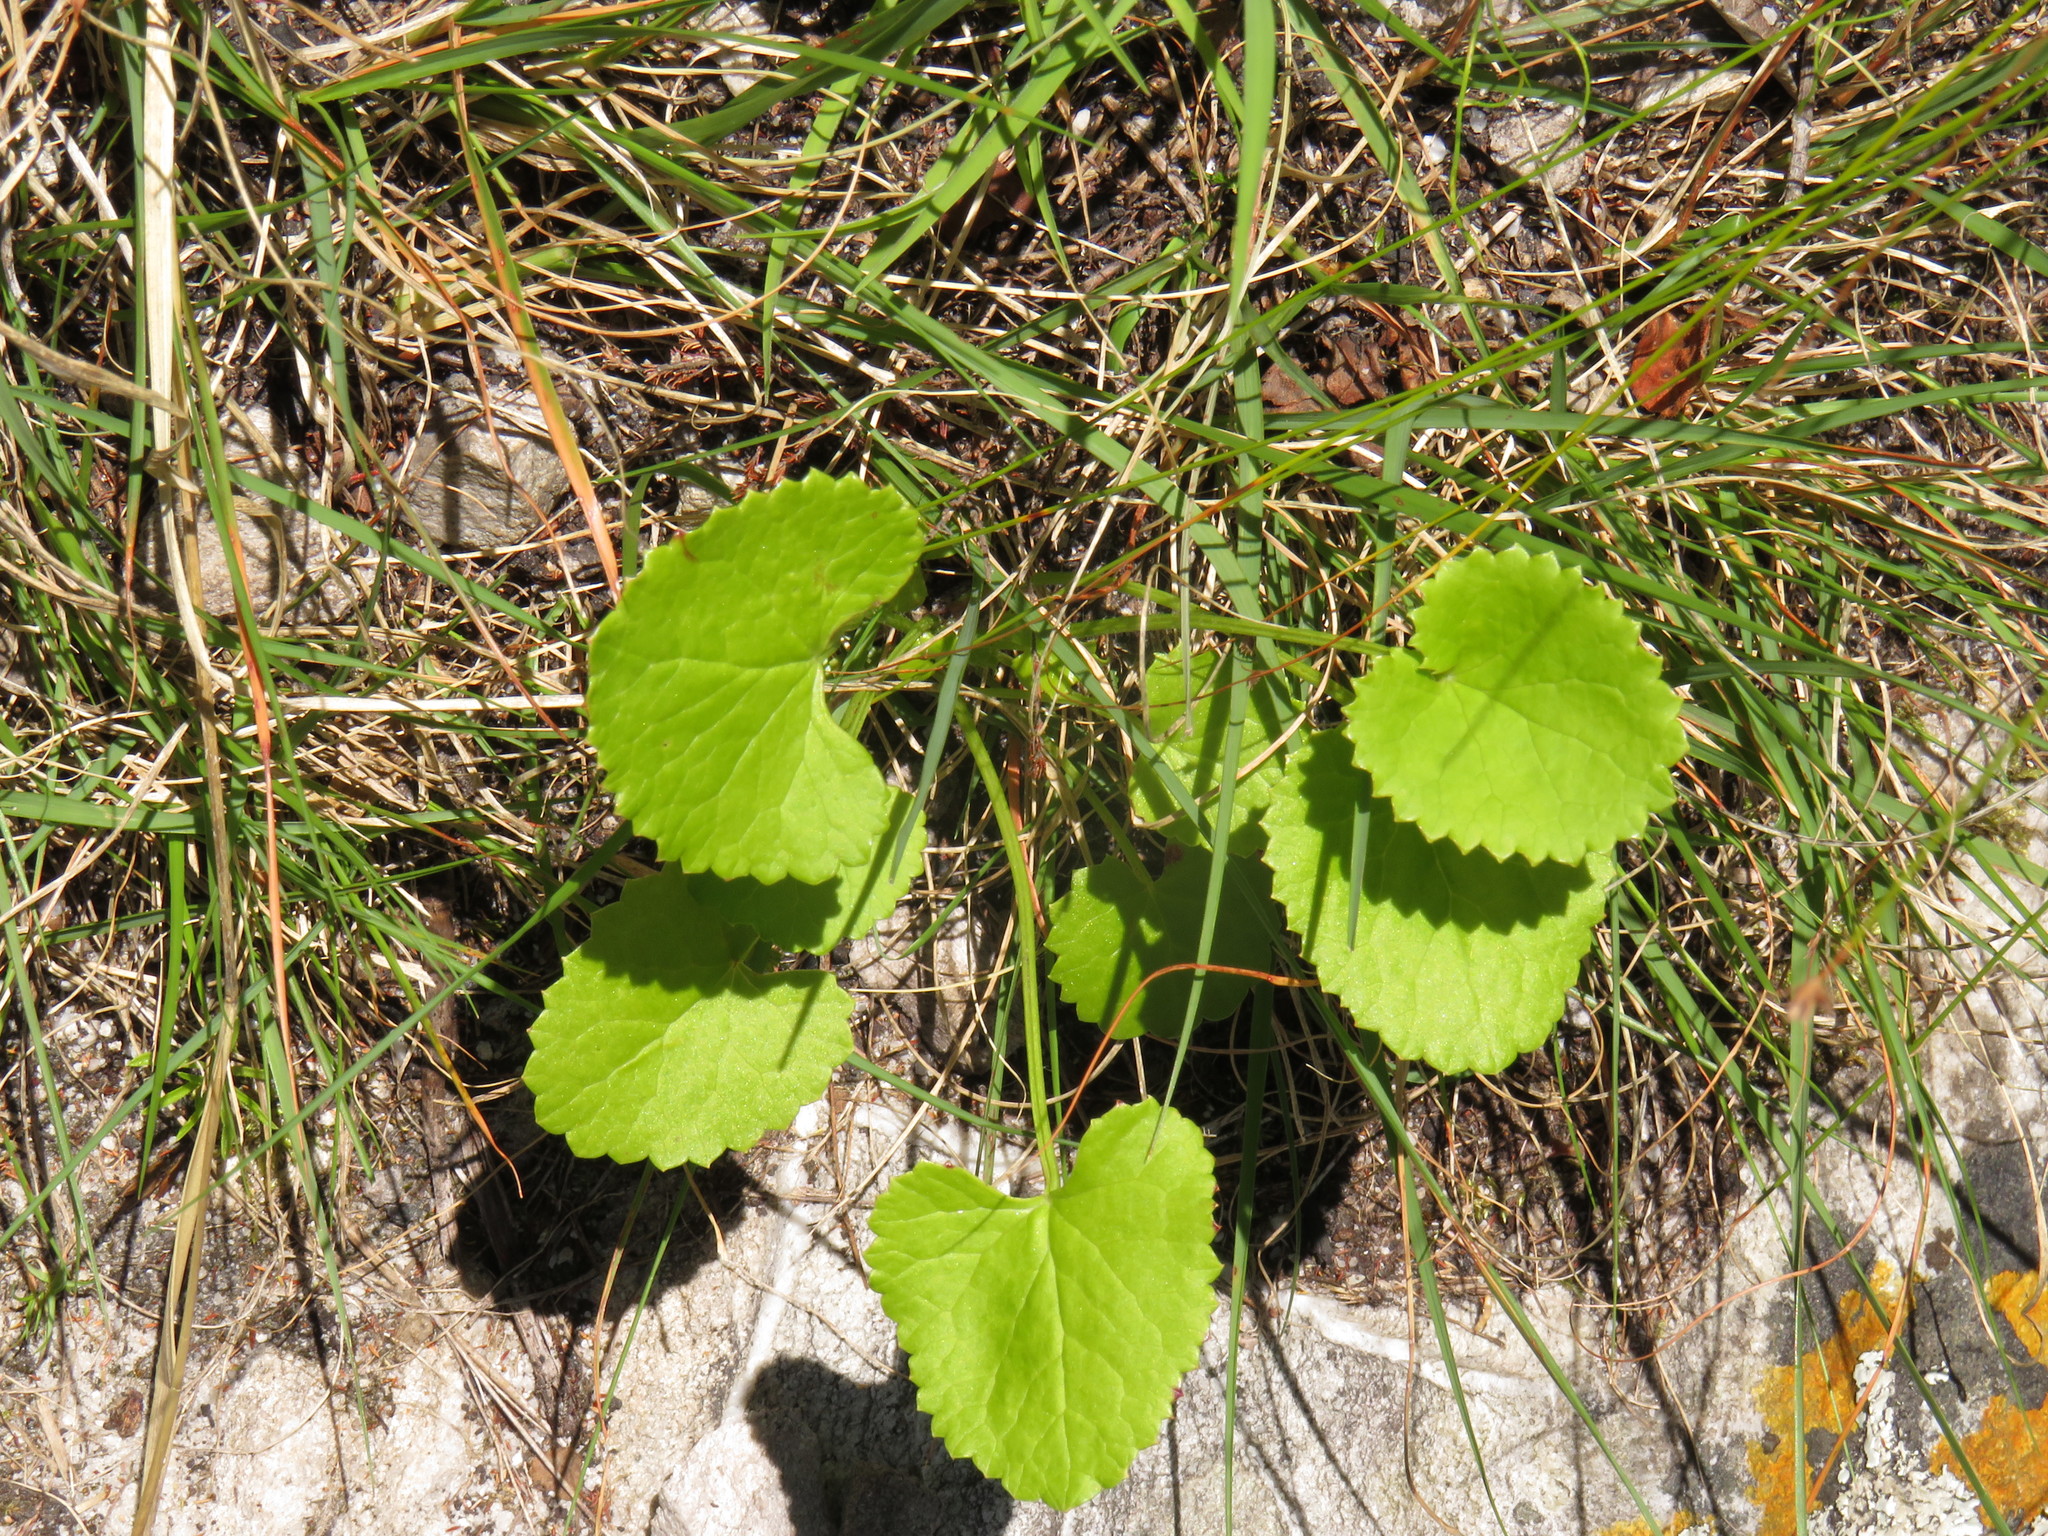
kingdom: Plantae
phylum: Tracheophyta
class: Magnoliopsida
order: Apiales
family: Apiaceae
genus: Centella
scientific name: Centella eriantha
